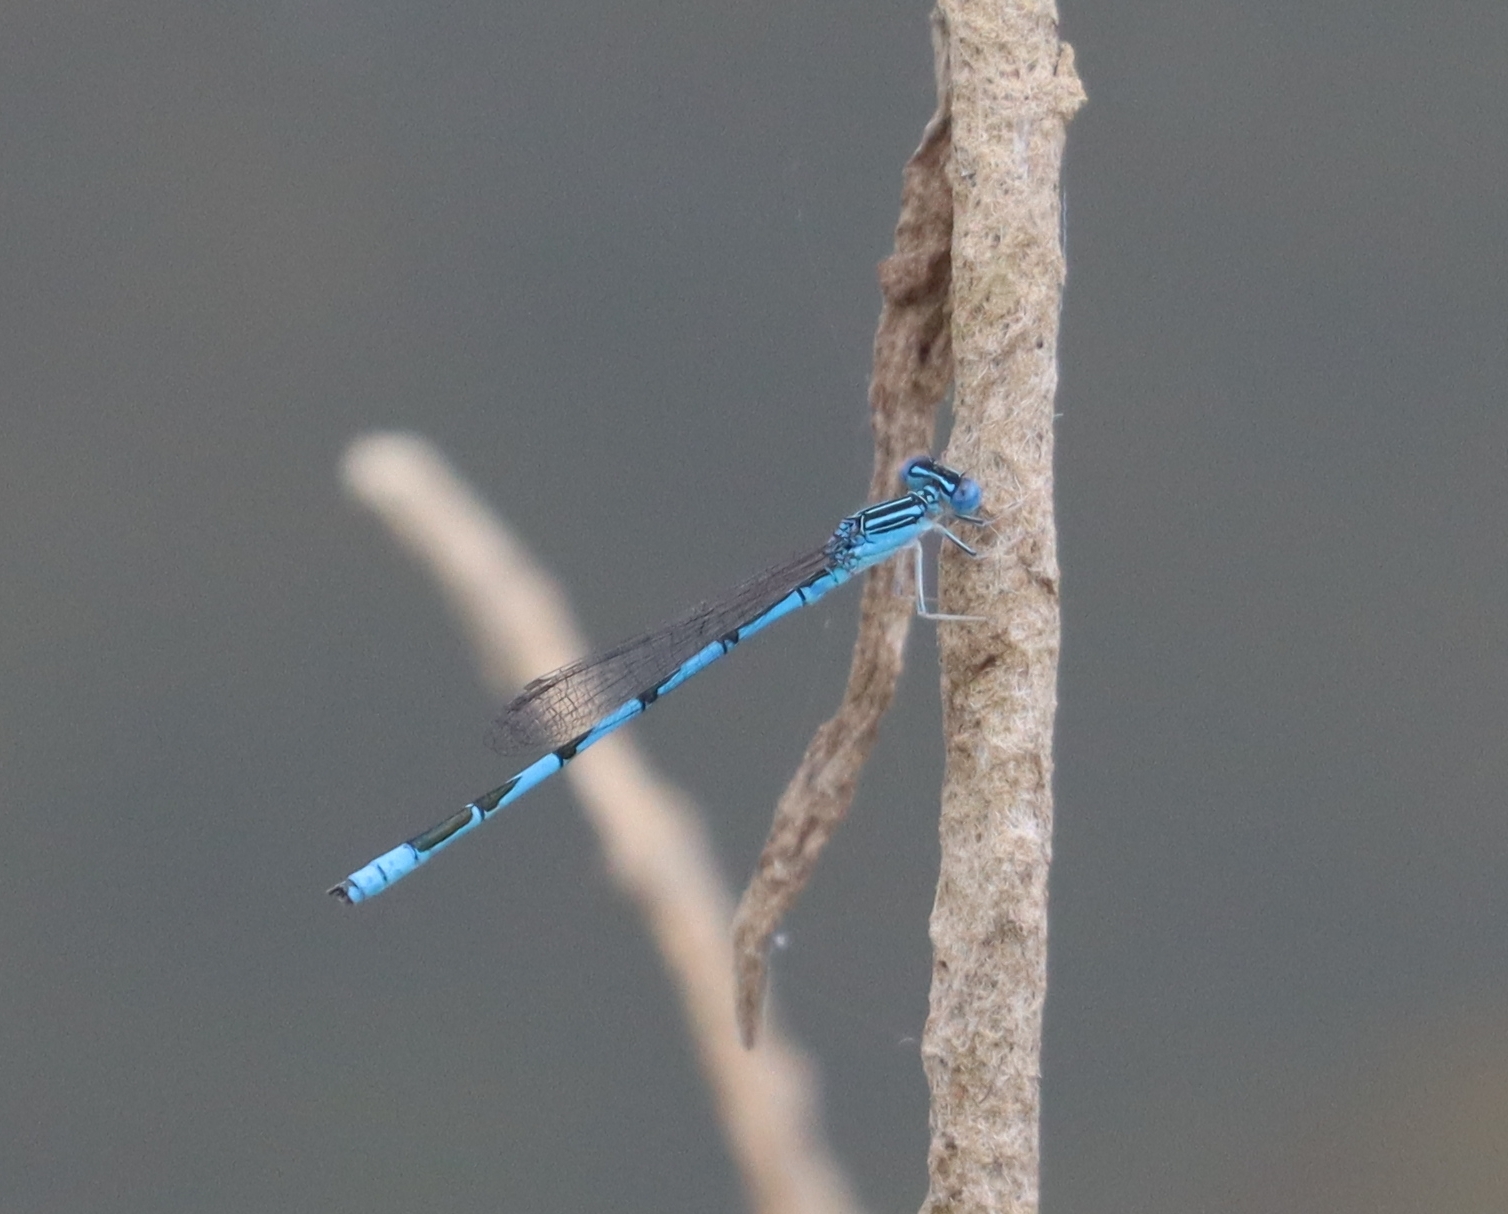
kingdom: Animalia
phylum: Arthropoda
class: Insecta
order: Odonata
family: Coenagrionidae
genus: Enallagma
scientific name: Enallagma basidens
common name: Double-striped bluet
